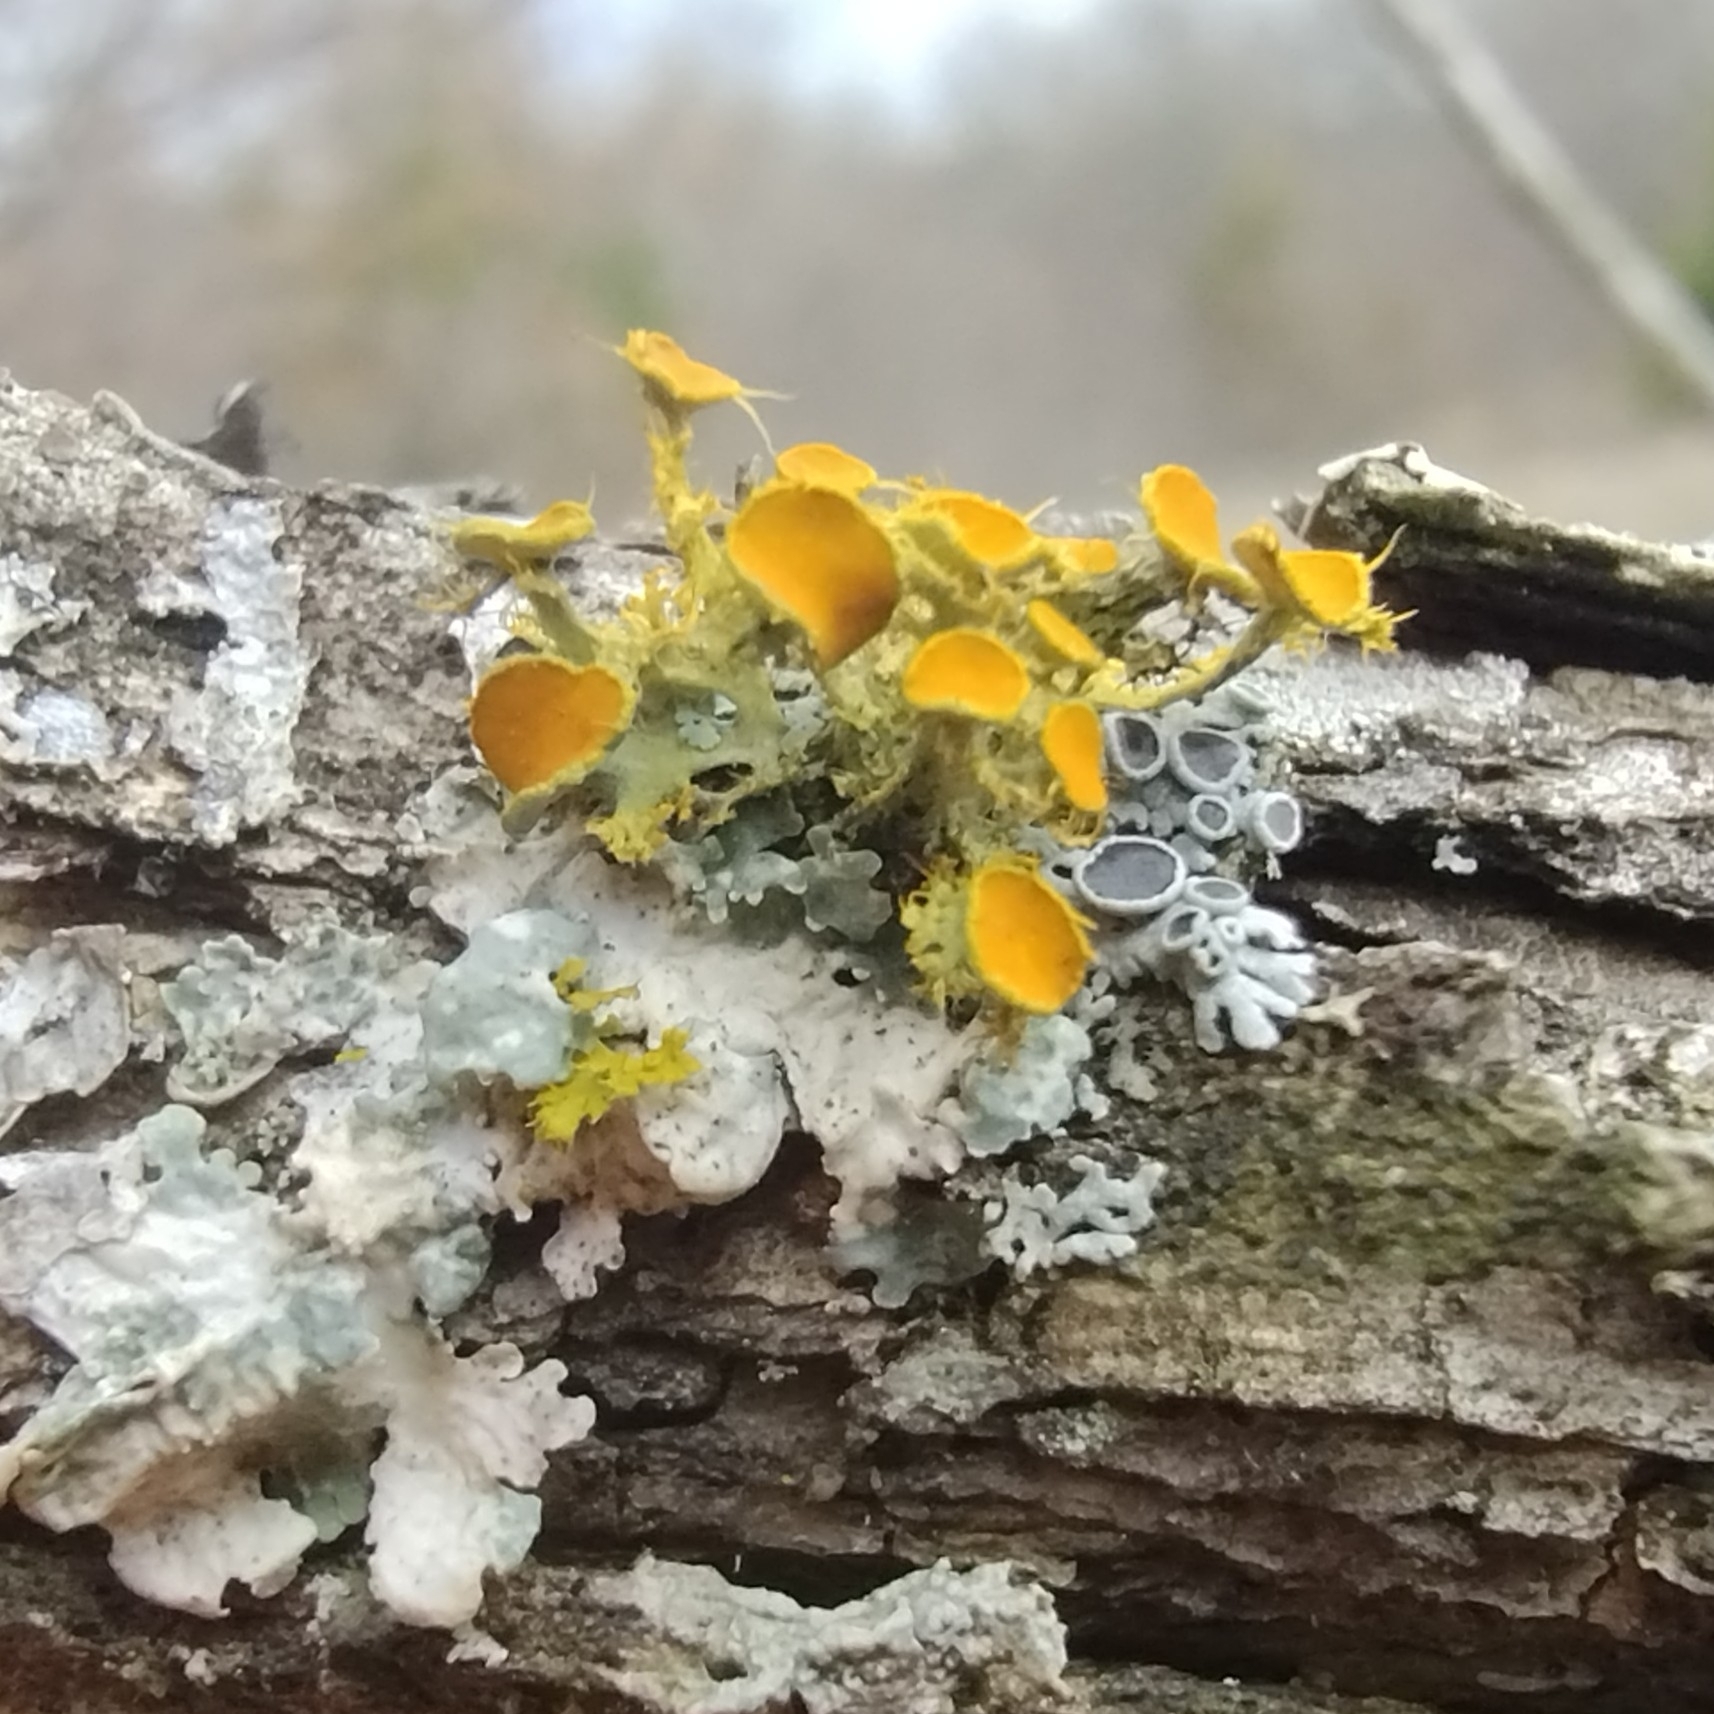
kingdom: Fungi
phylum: Ascomycota
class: Lecanoromycetes
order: Teloschistales
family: Teloschistaceae
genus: Niorma
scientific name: Niorma chrysophthalma
